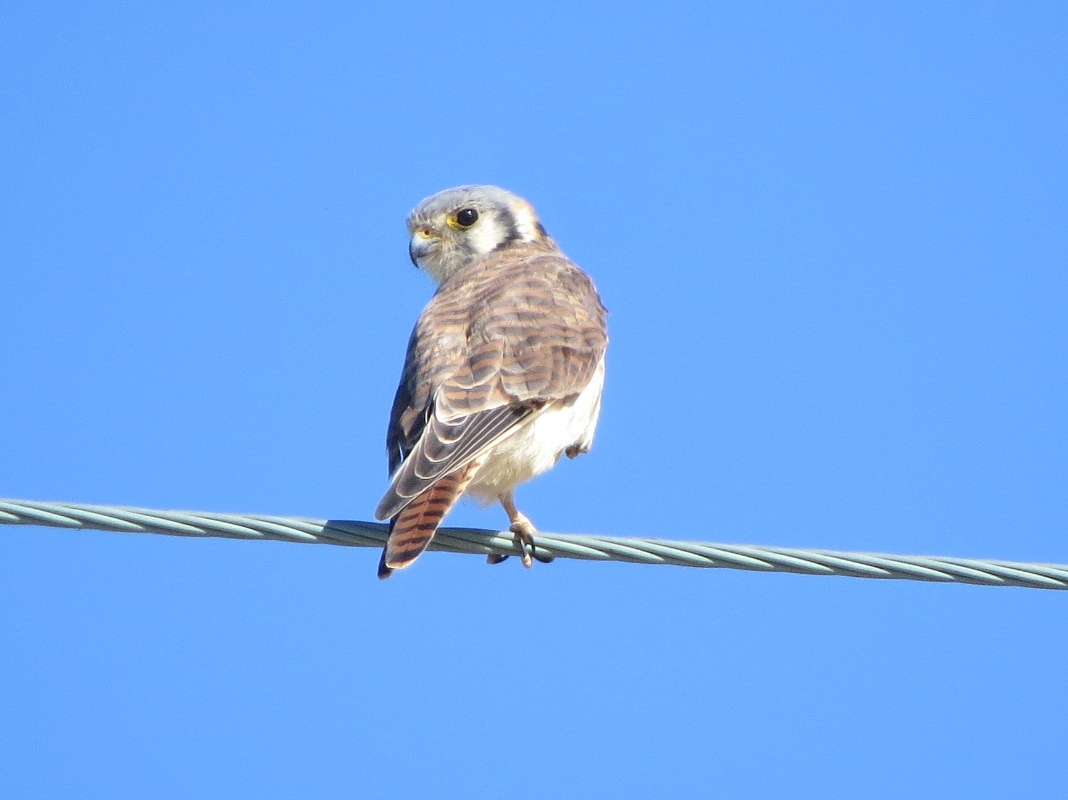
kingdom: Animalia
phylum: Chordata
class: Aves
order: Falconiformes
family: Falconidae
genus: Falco
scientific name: Falco sparverius
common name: American kestrel
